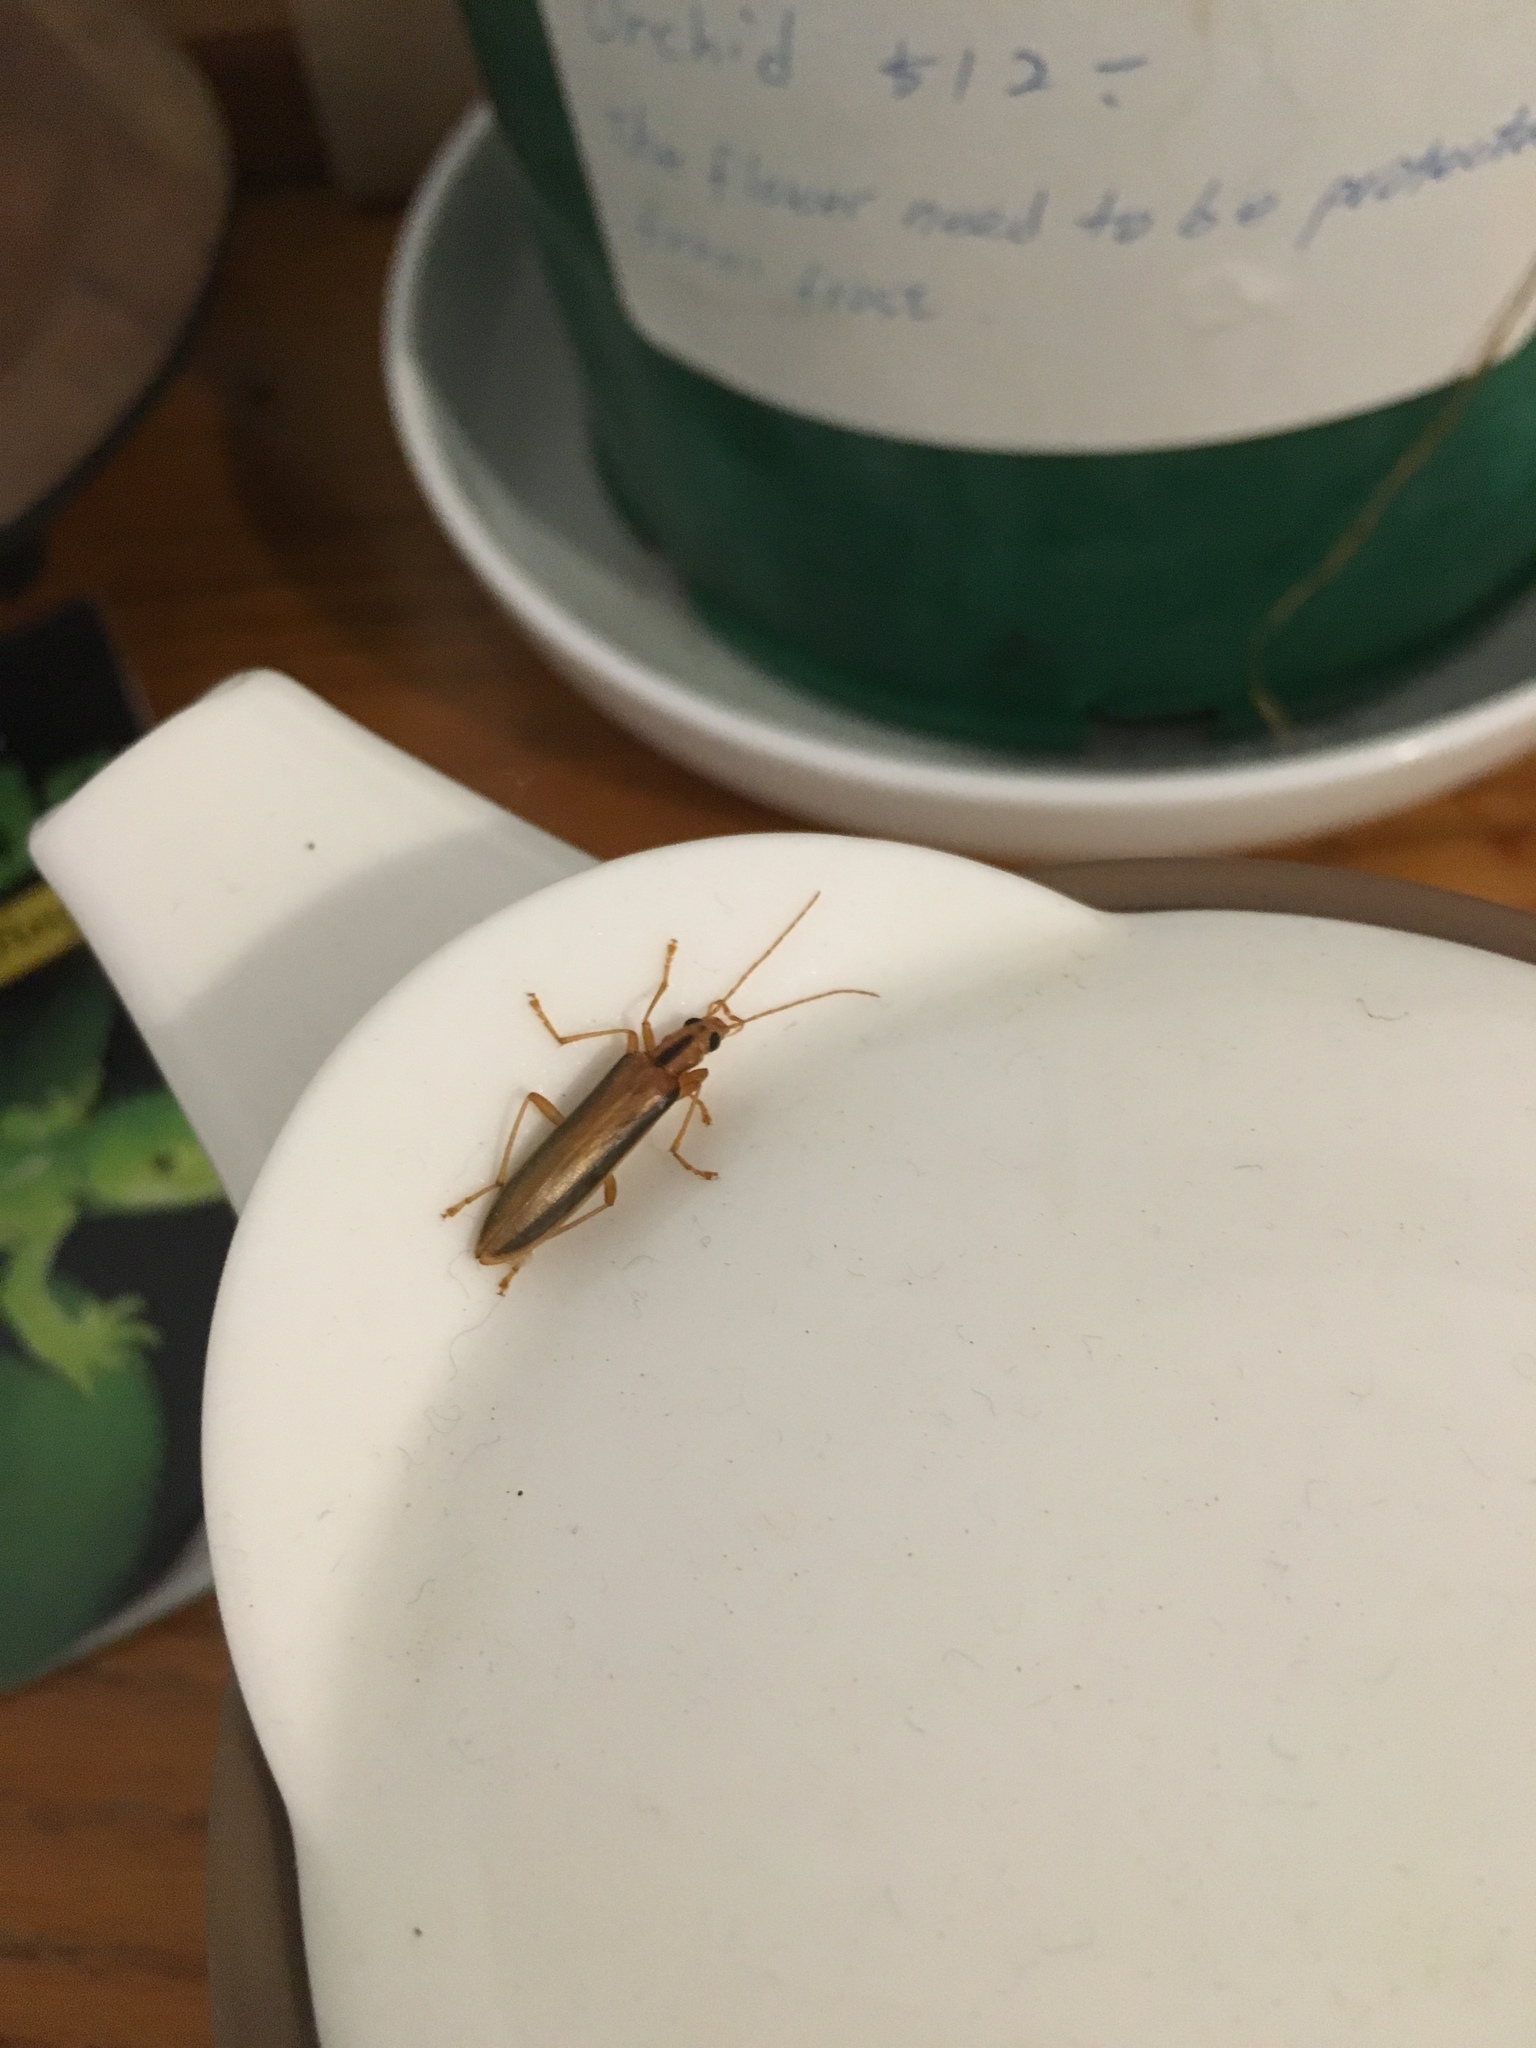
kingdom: Animalia
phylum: Arthropoda
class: Insecta
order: Coleoptera
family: Oedemeridae
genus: Thelyphassa
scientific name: Thelyphassa
